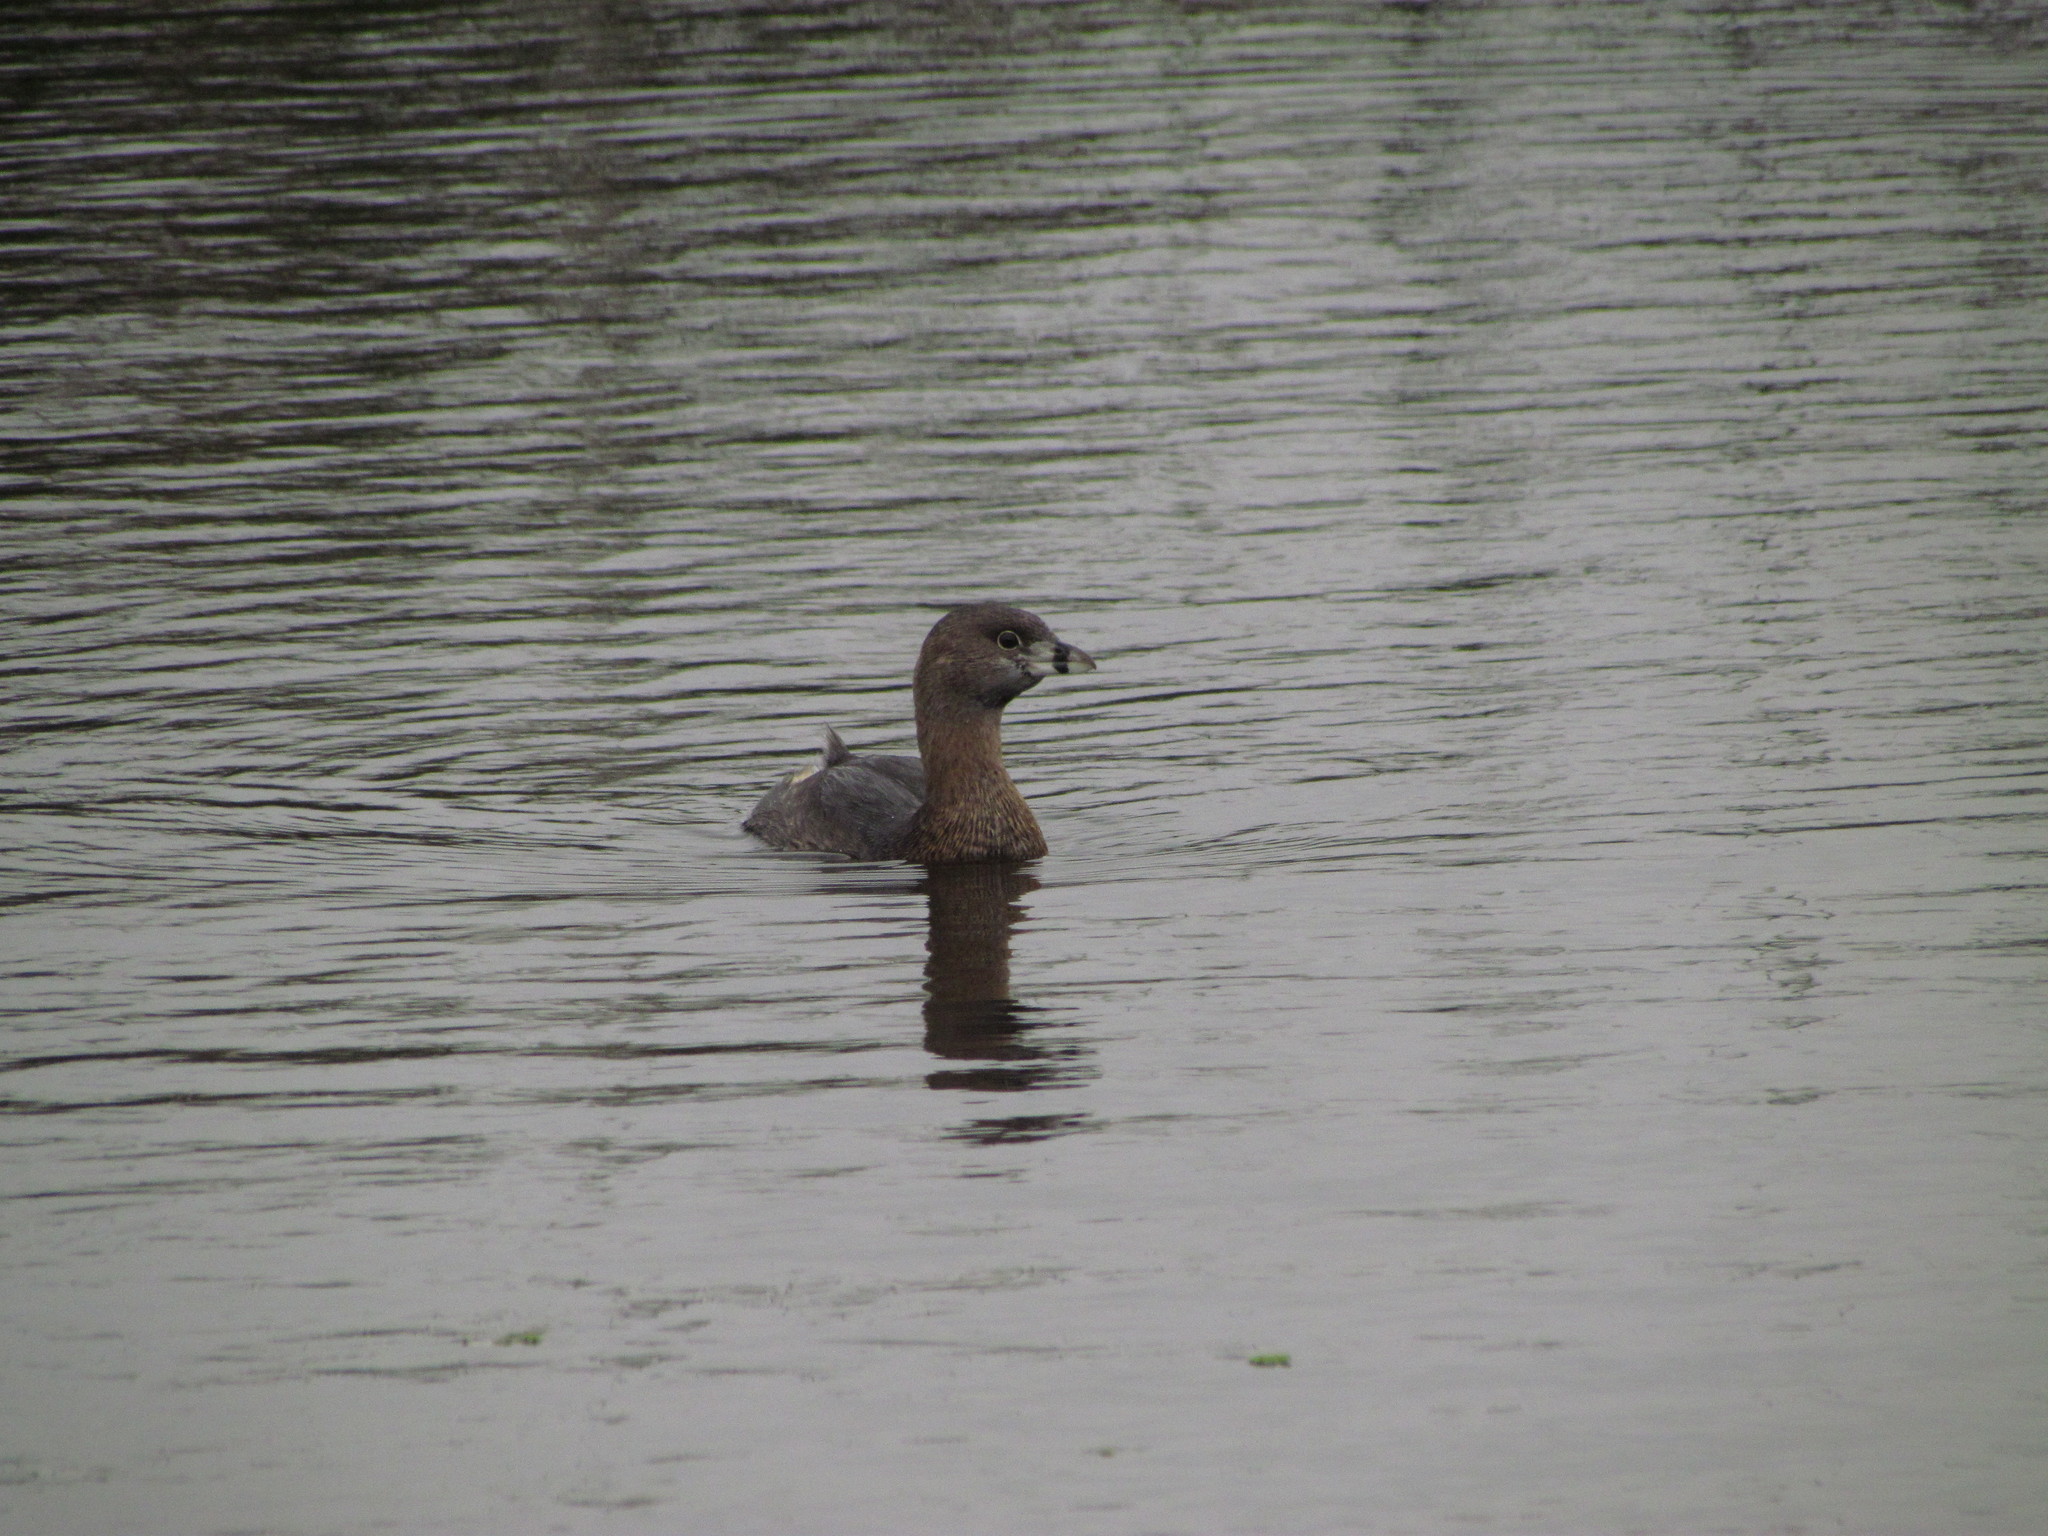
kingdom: Animalia
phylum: Chordata
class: Aves
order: Podicipediformes
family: Podicipedidae
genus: Podilymbus
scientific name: Podilymbus podiceps
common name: Pied-billed grebe
